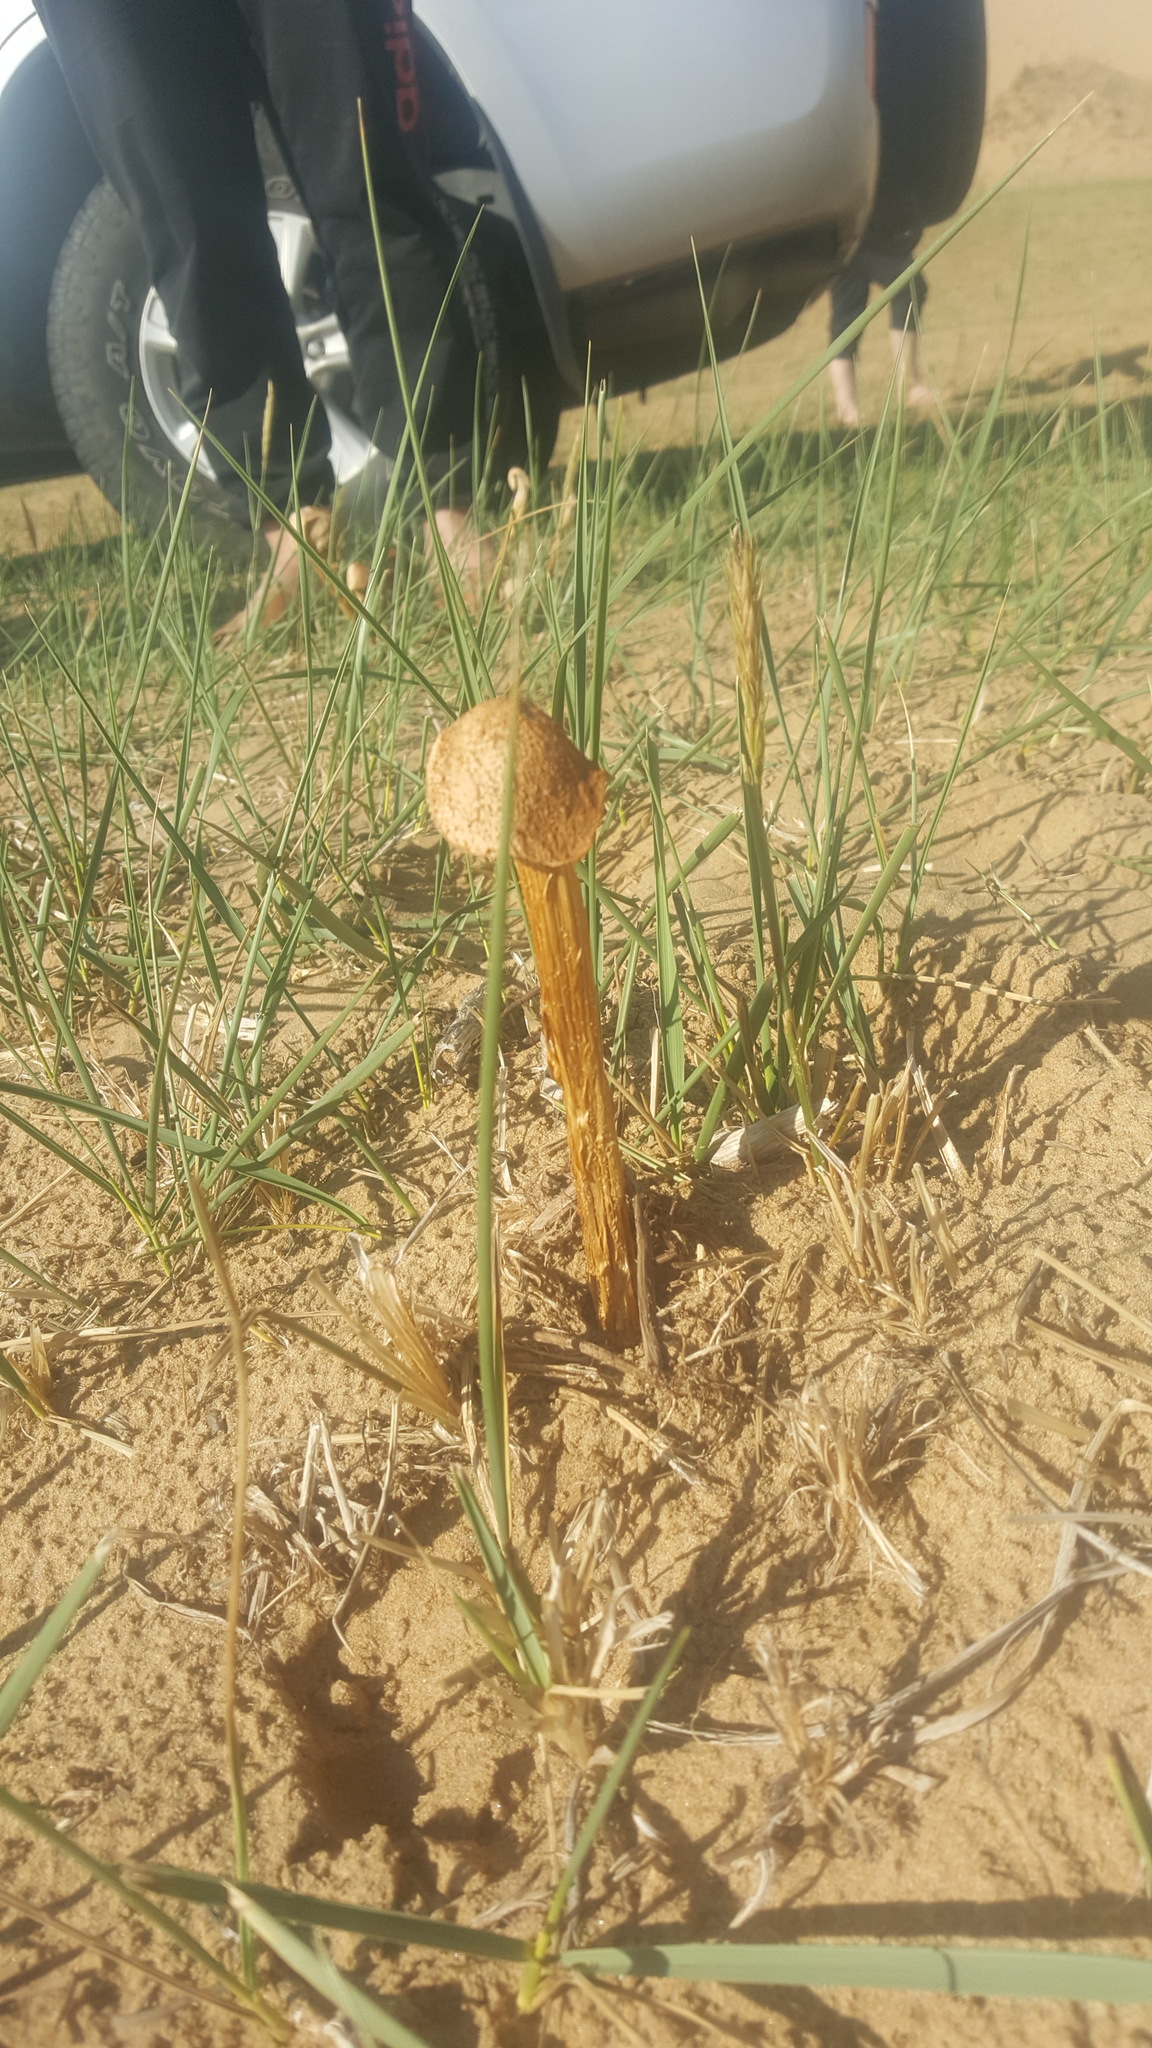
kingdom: Fungi
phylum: Basidiomycota
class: Agaricomycetes
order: Agaricales
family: Agaricaceae
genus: Battarrea
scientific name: Battarrea phalloides
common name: Sandy stiltball
